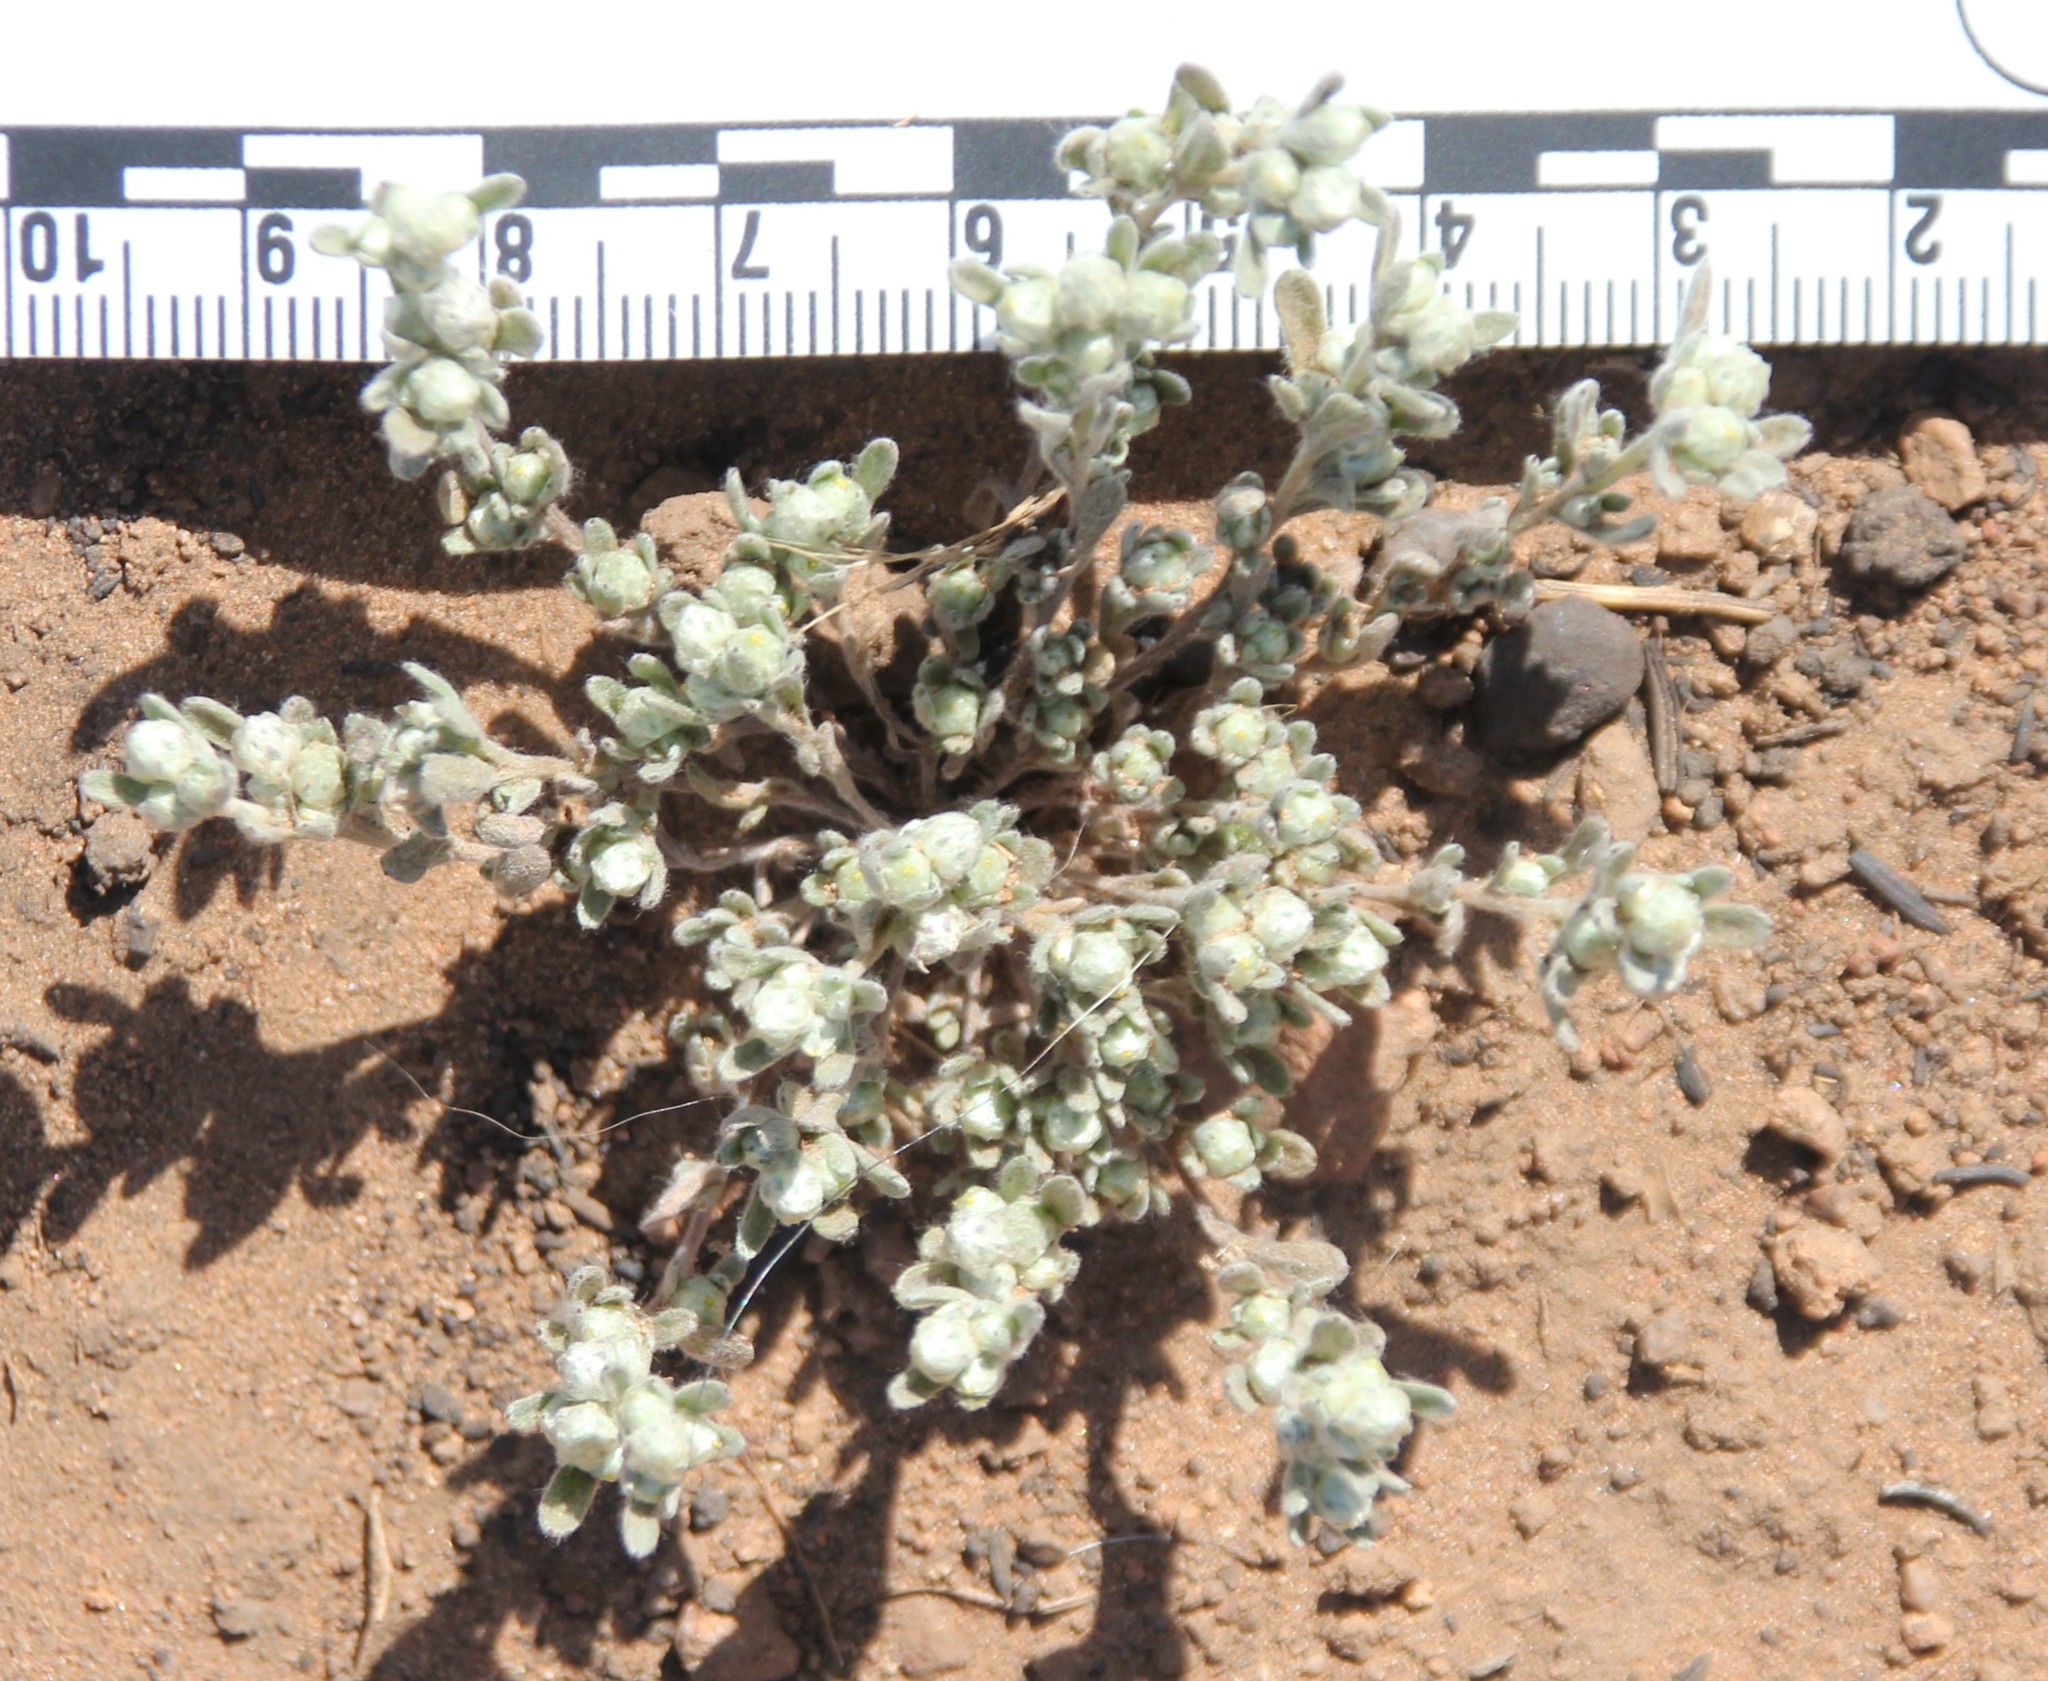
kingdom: Plantae
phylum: Tracheophyta
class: Magnoliopsida
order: Asterales
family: Asteraceae
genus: Stylocline
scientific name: Stylocline gnaphaloides
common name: Everlasting nest-straw
